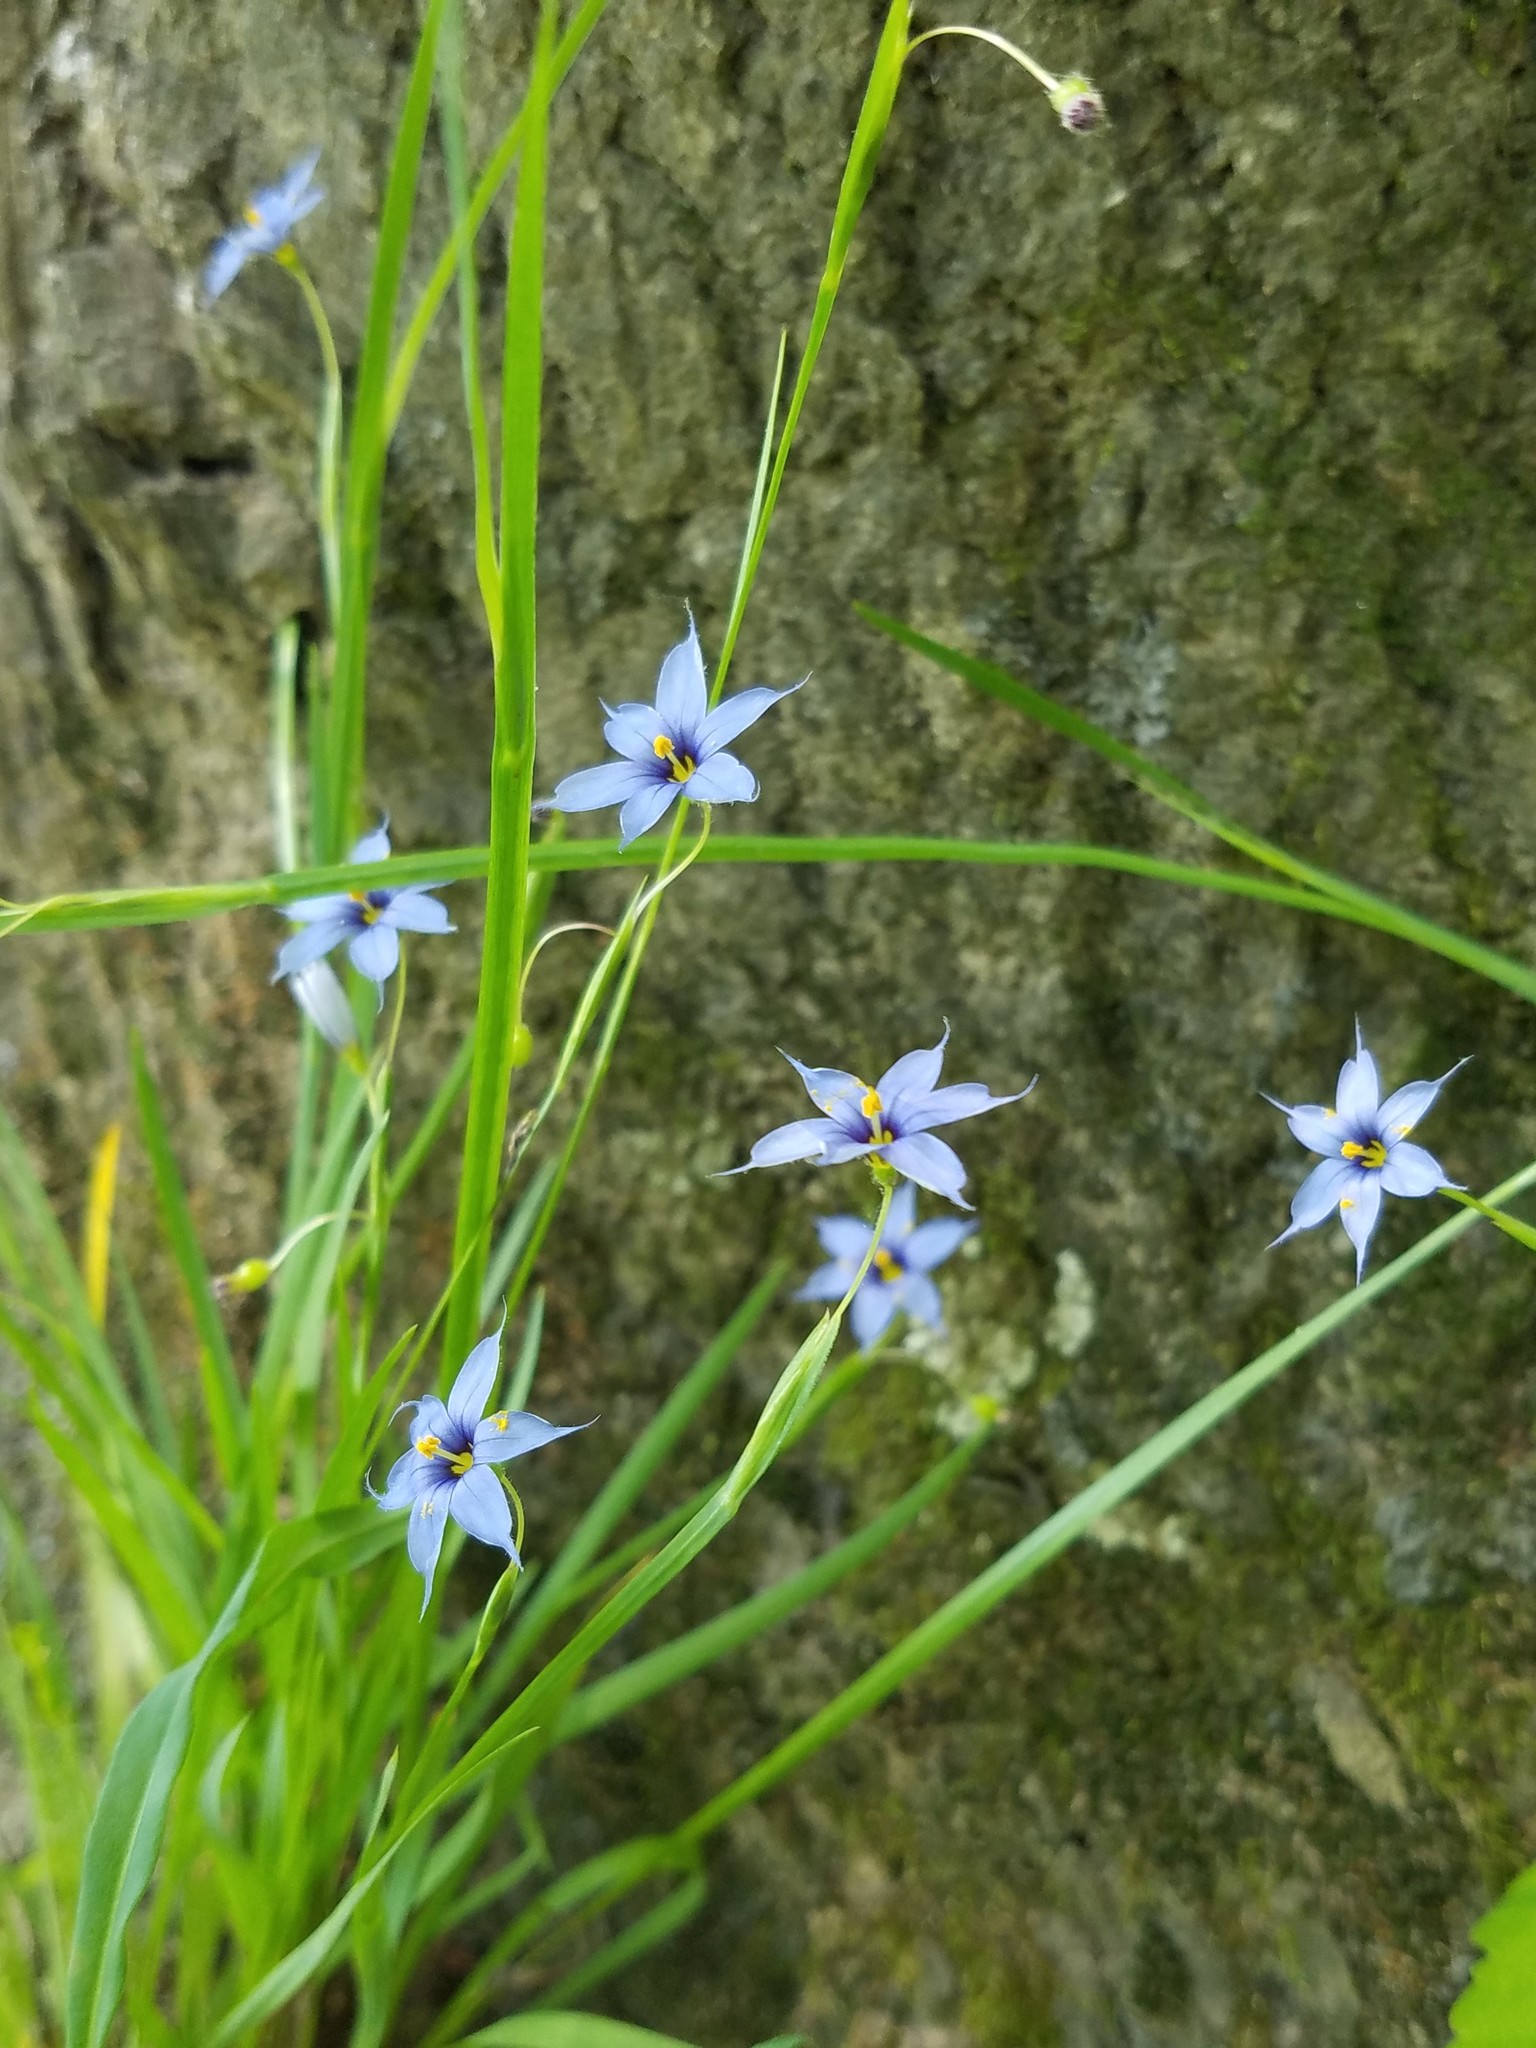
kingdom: Plantae
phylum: Tracheophyta
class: Liliopsida
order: Asparagales
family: Iridaceae
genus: Sisyrinchium
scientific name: Sisyrinchium angustifolium
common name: Narrow-leaf blue-eyed-grass
